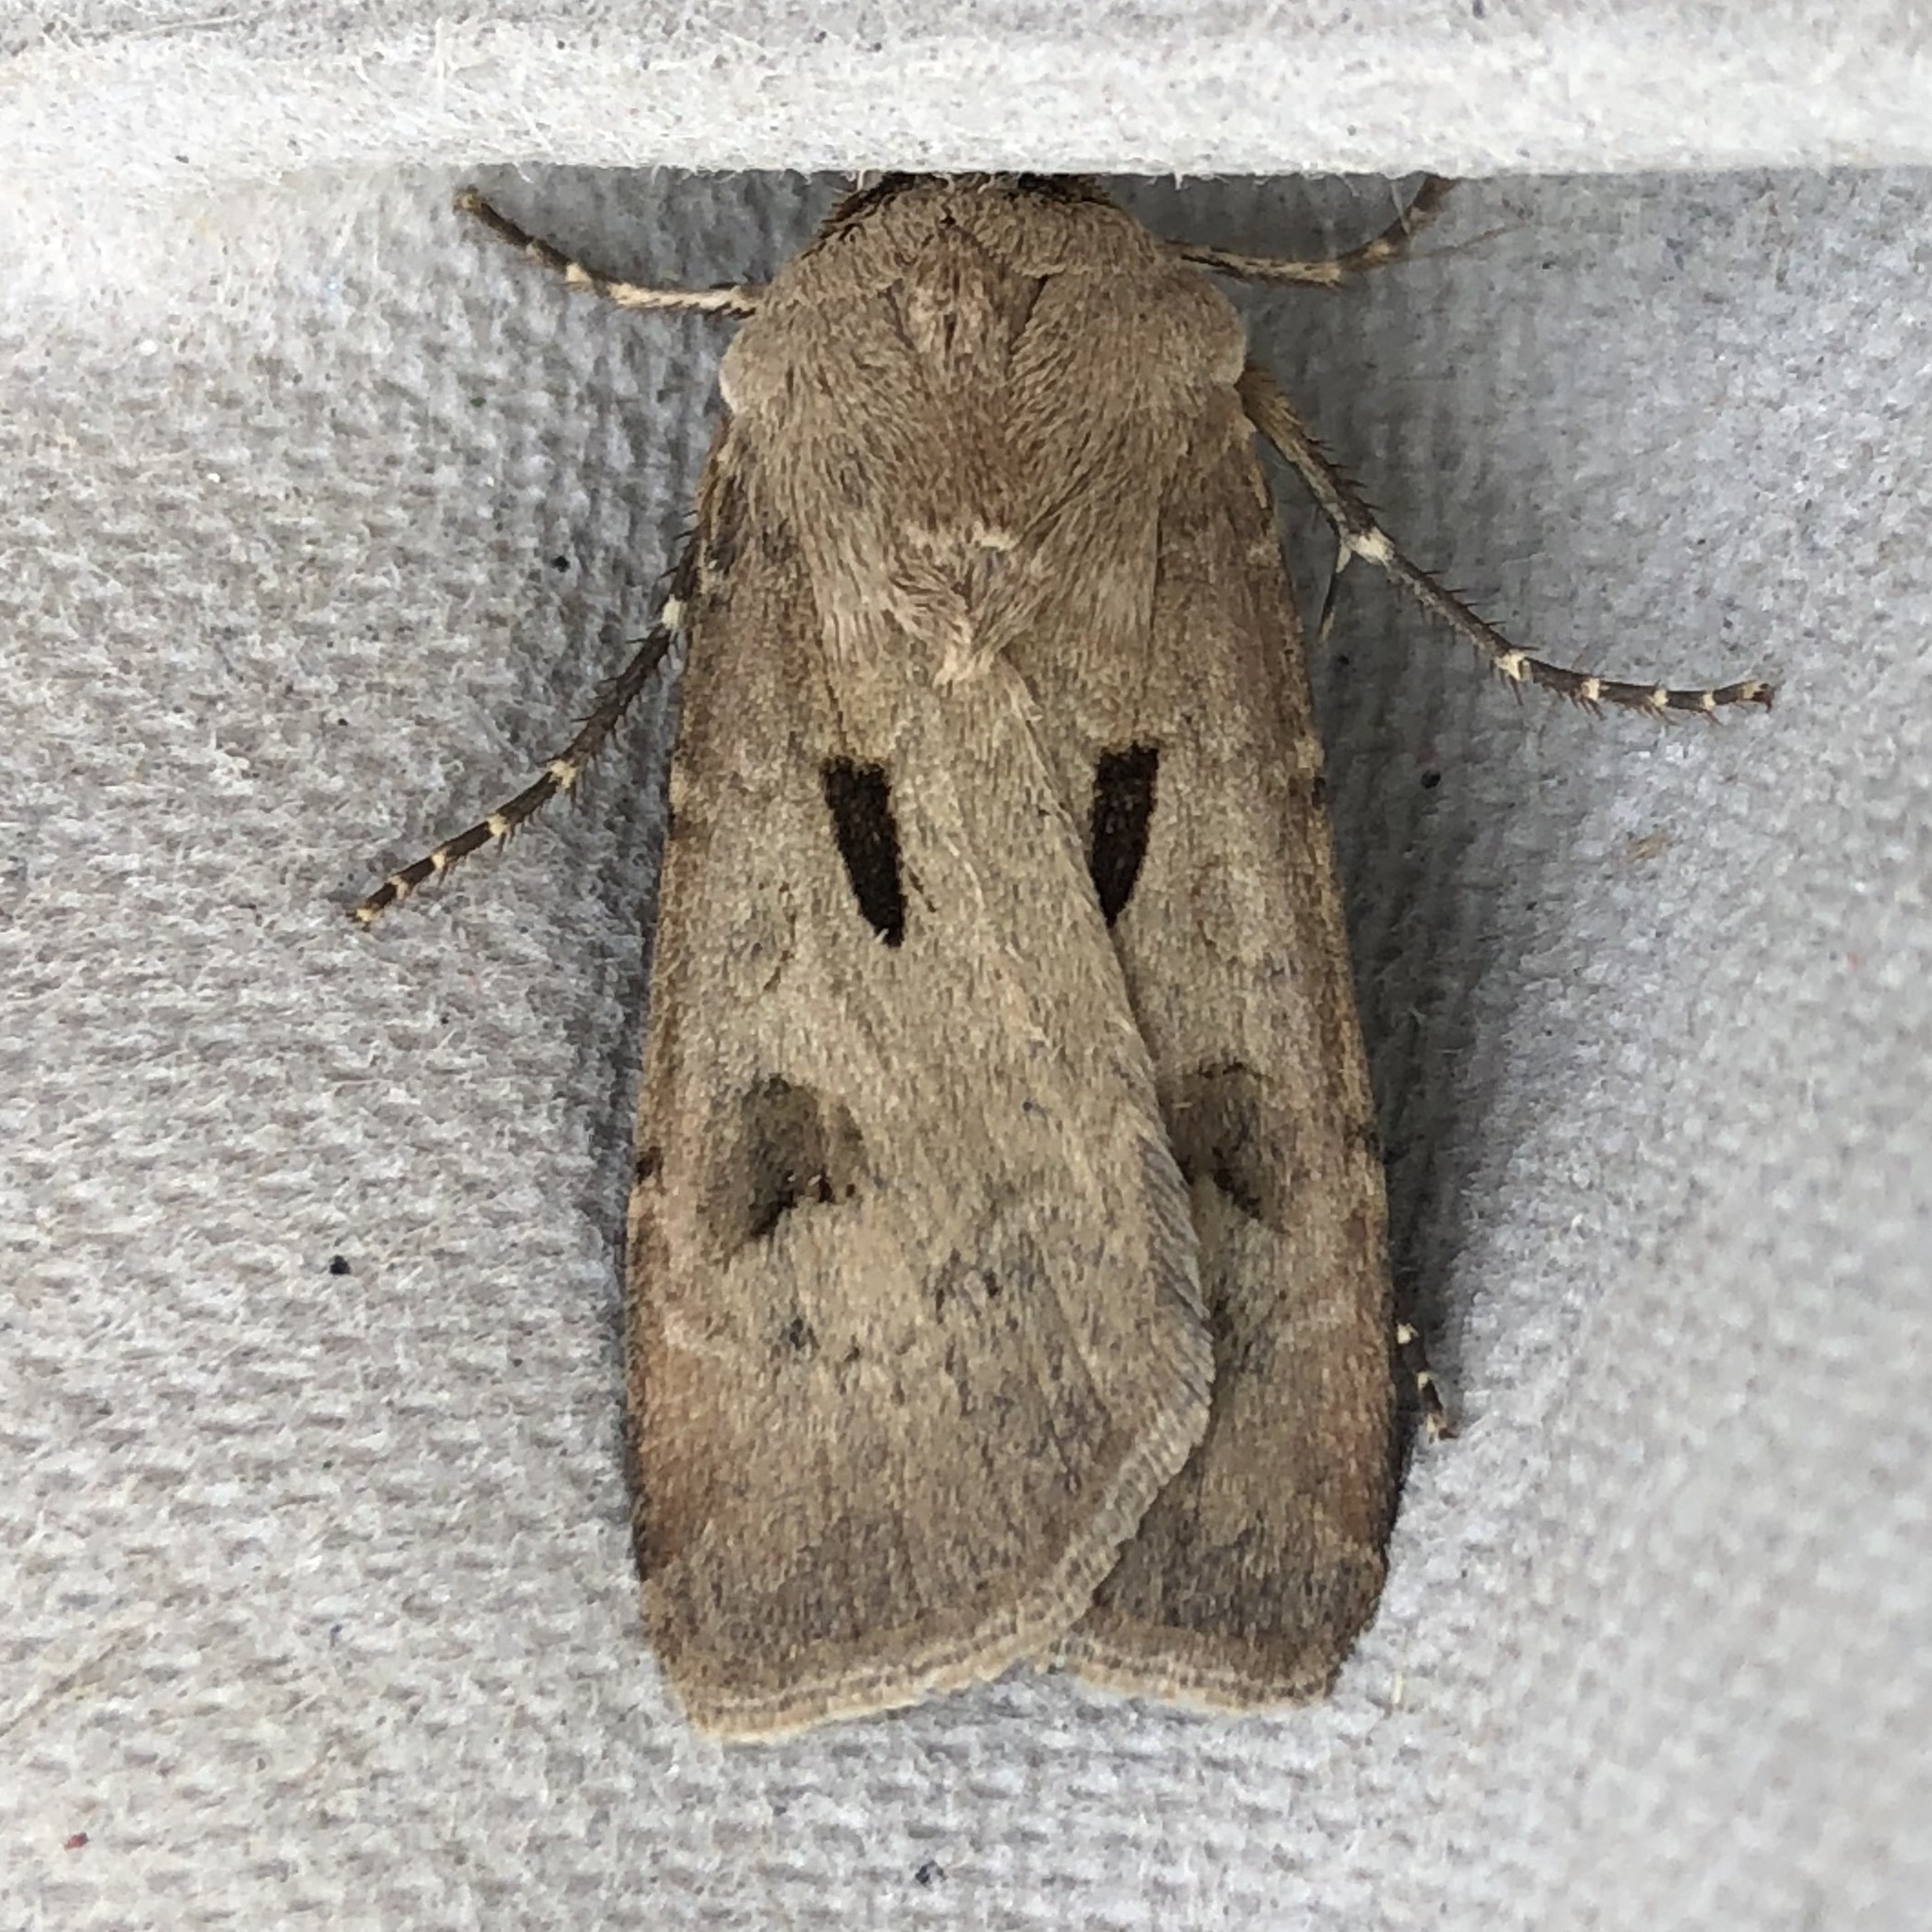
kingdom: Animalia
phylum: Arthropoda
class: Insecta
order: Lepidoptera
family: Noctuidae
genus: Agrotis
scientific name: Agrotis exclamationis
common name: Heart and dart
